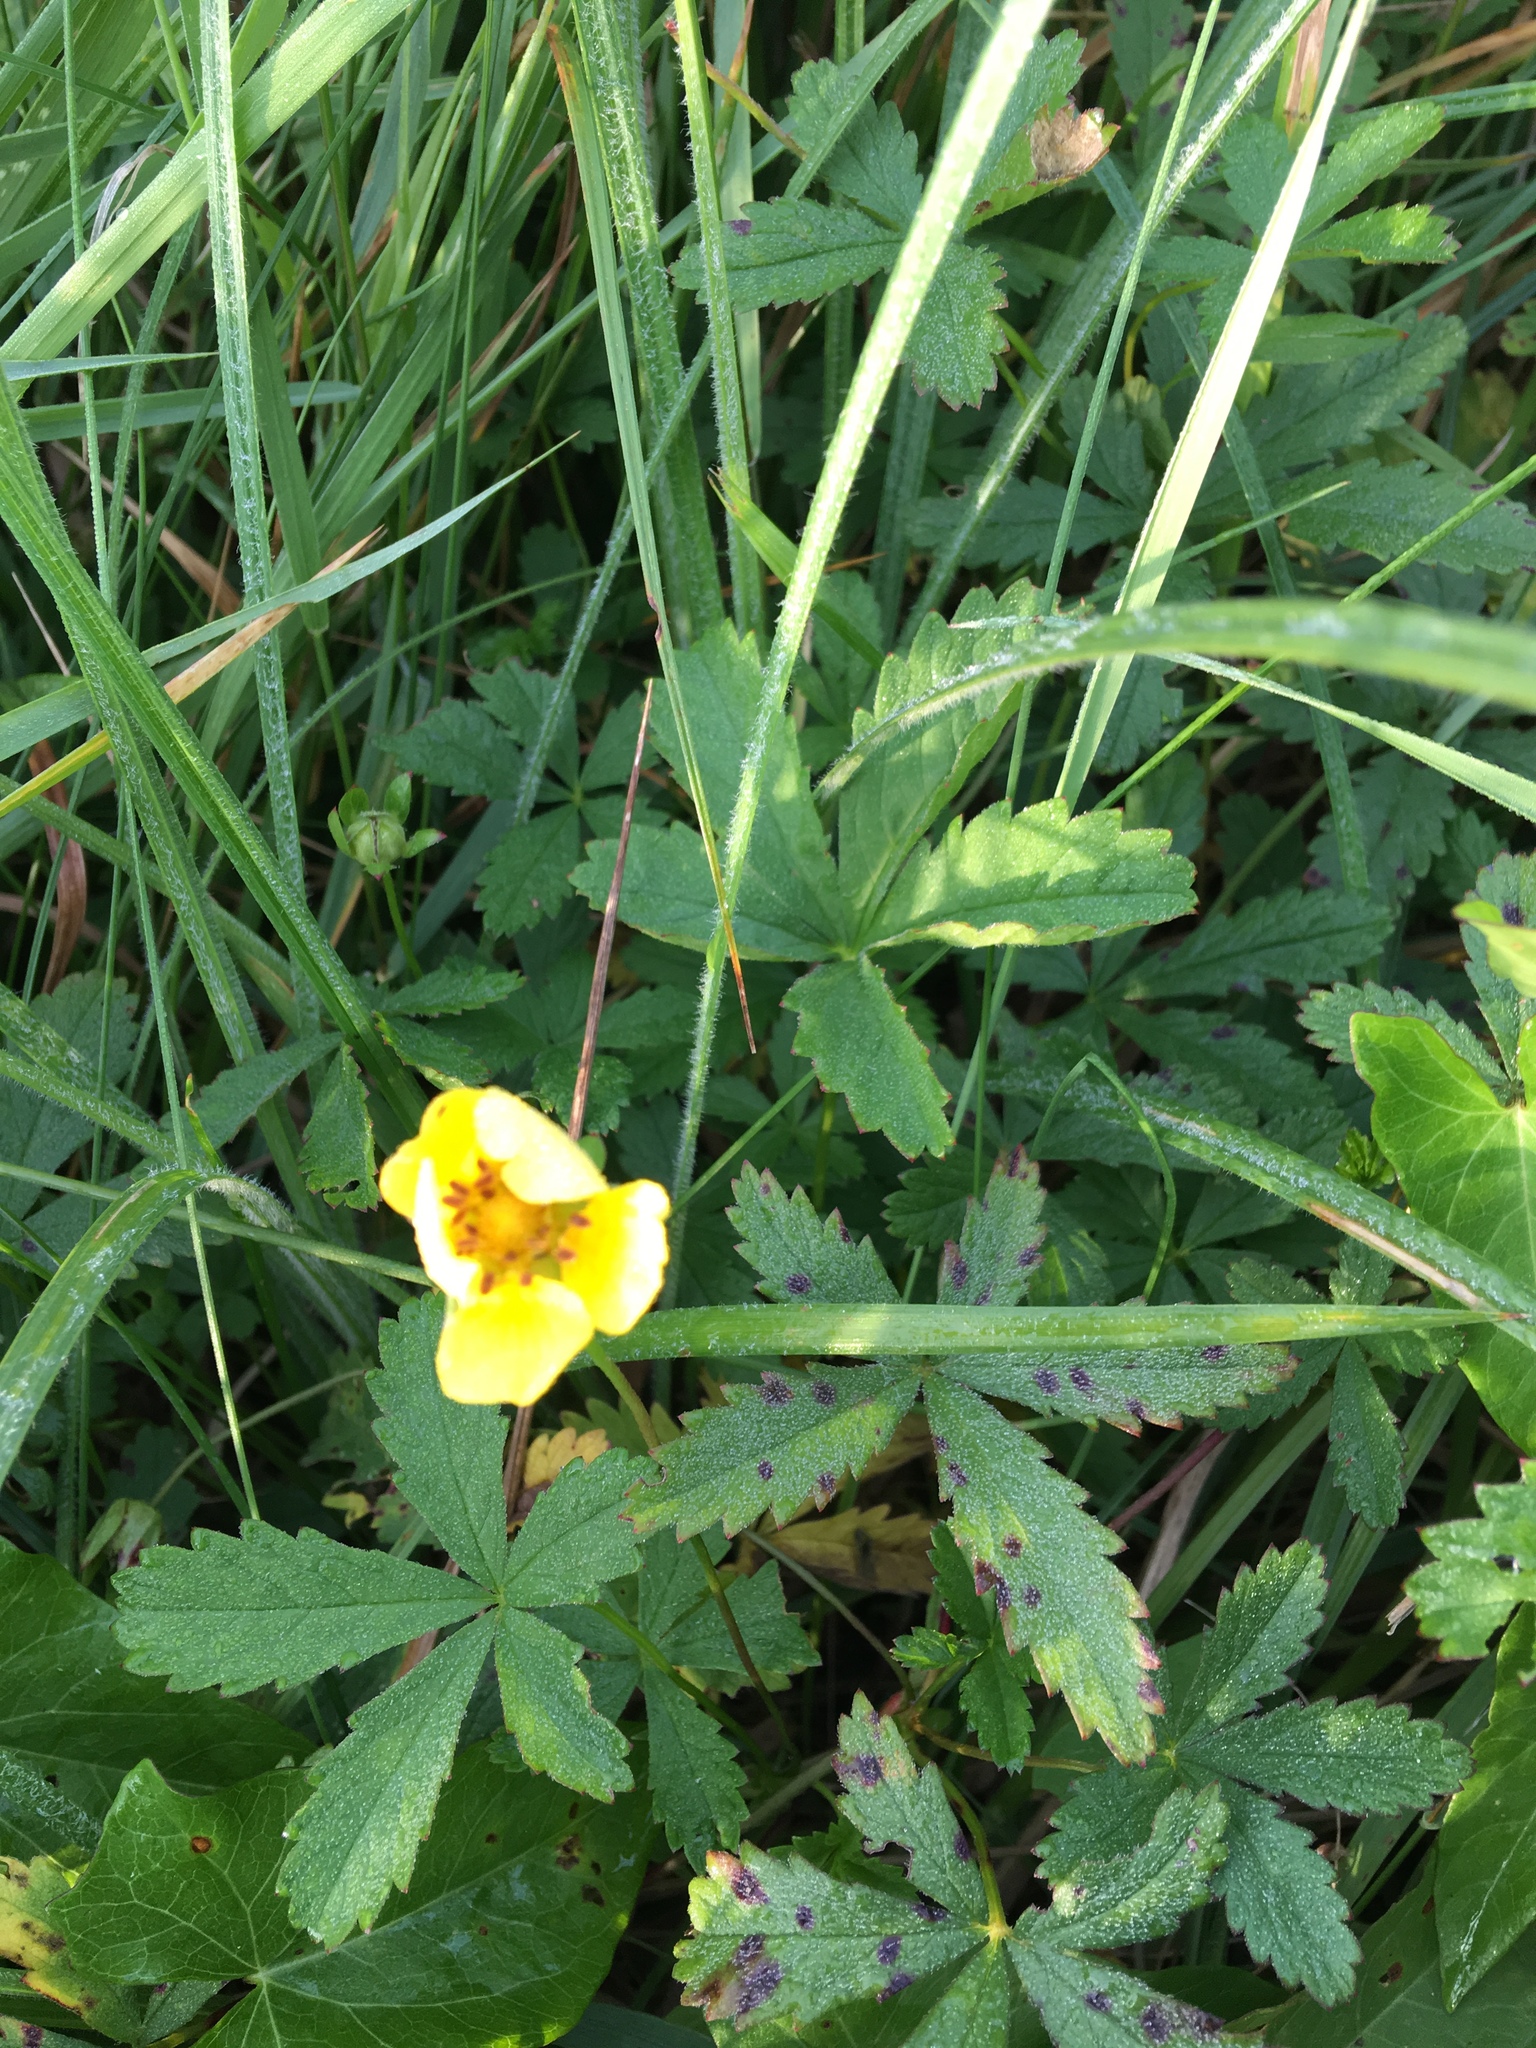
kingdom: Plantae
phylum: Tracheophyta
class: Magnoliopsida
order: Rosales
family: Rosaceae
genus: Potentilla
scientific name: Potentilla reptans
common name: Creeping cinquefoil
